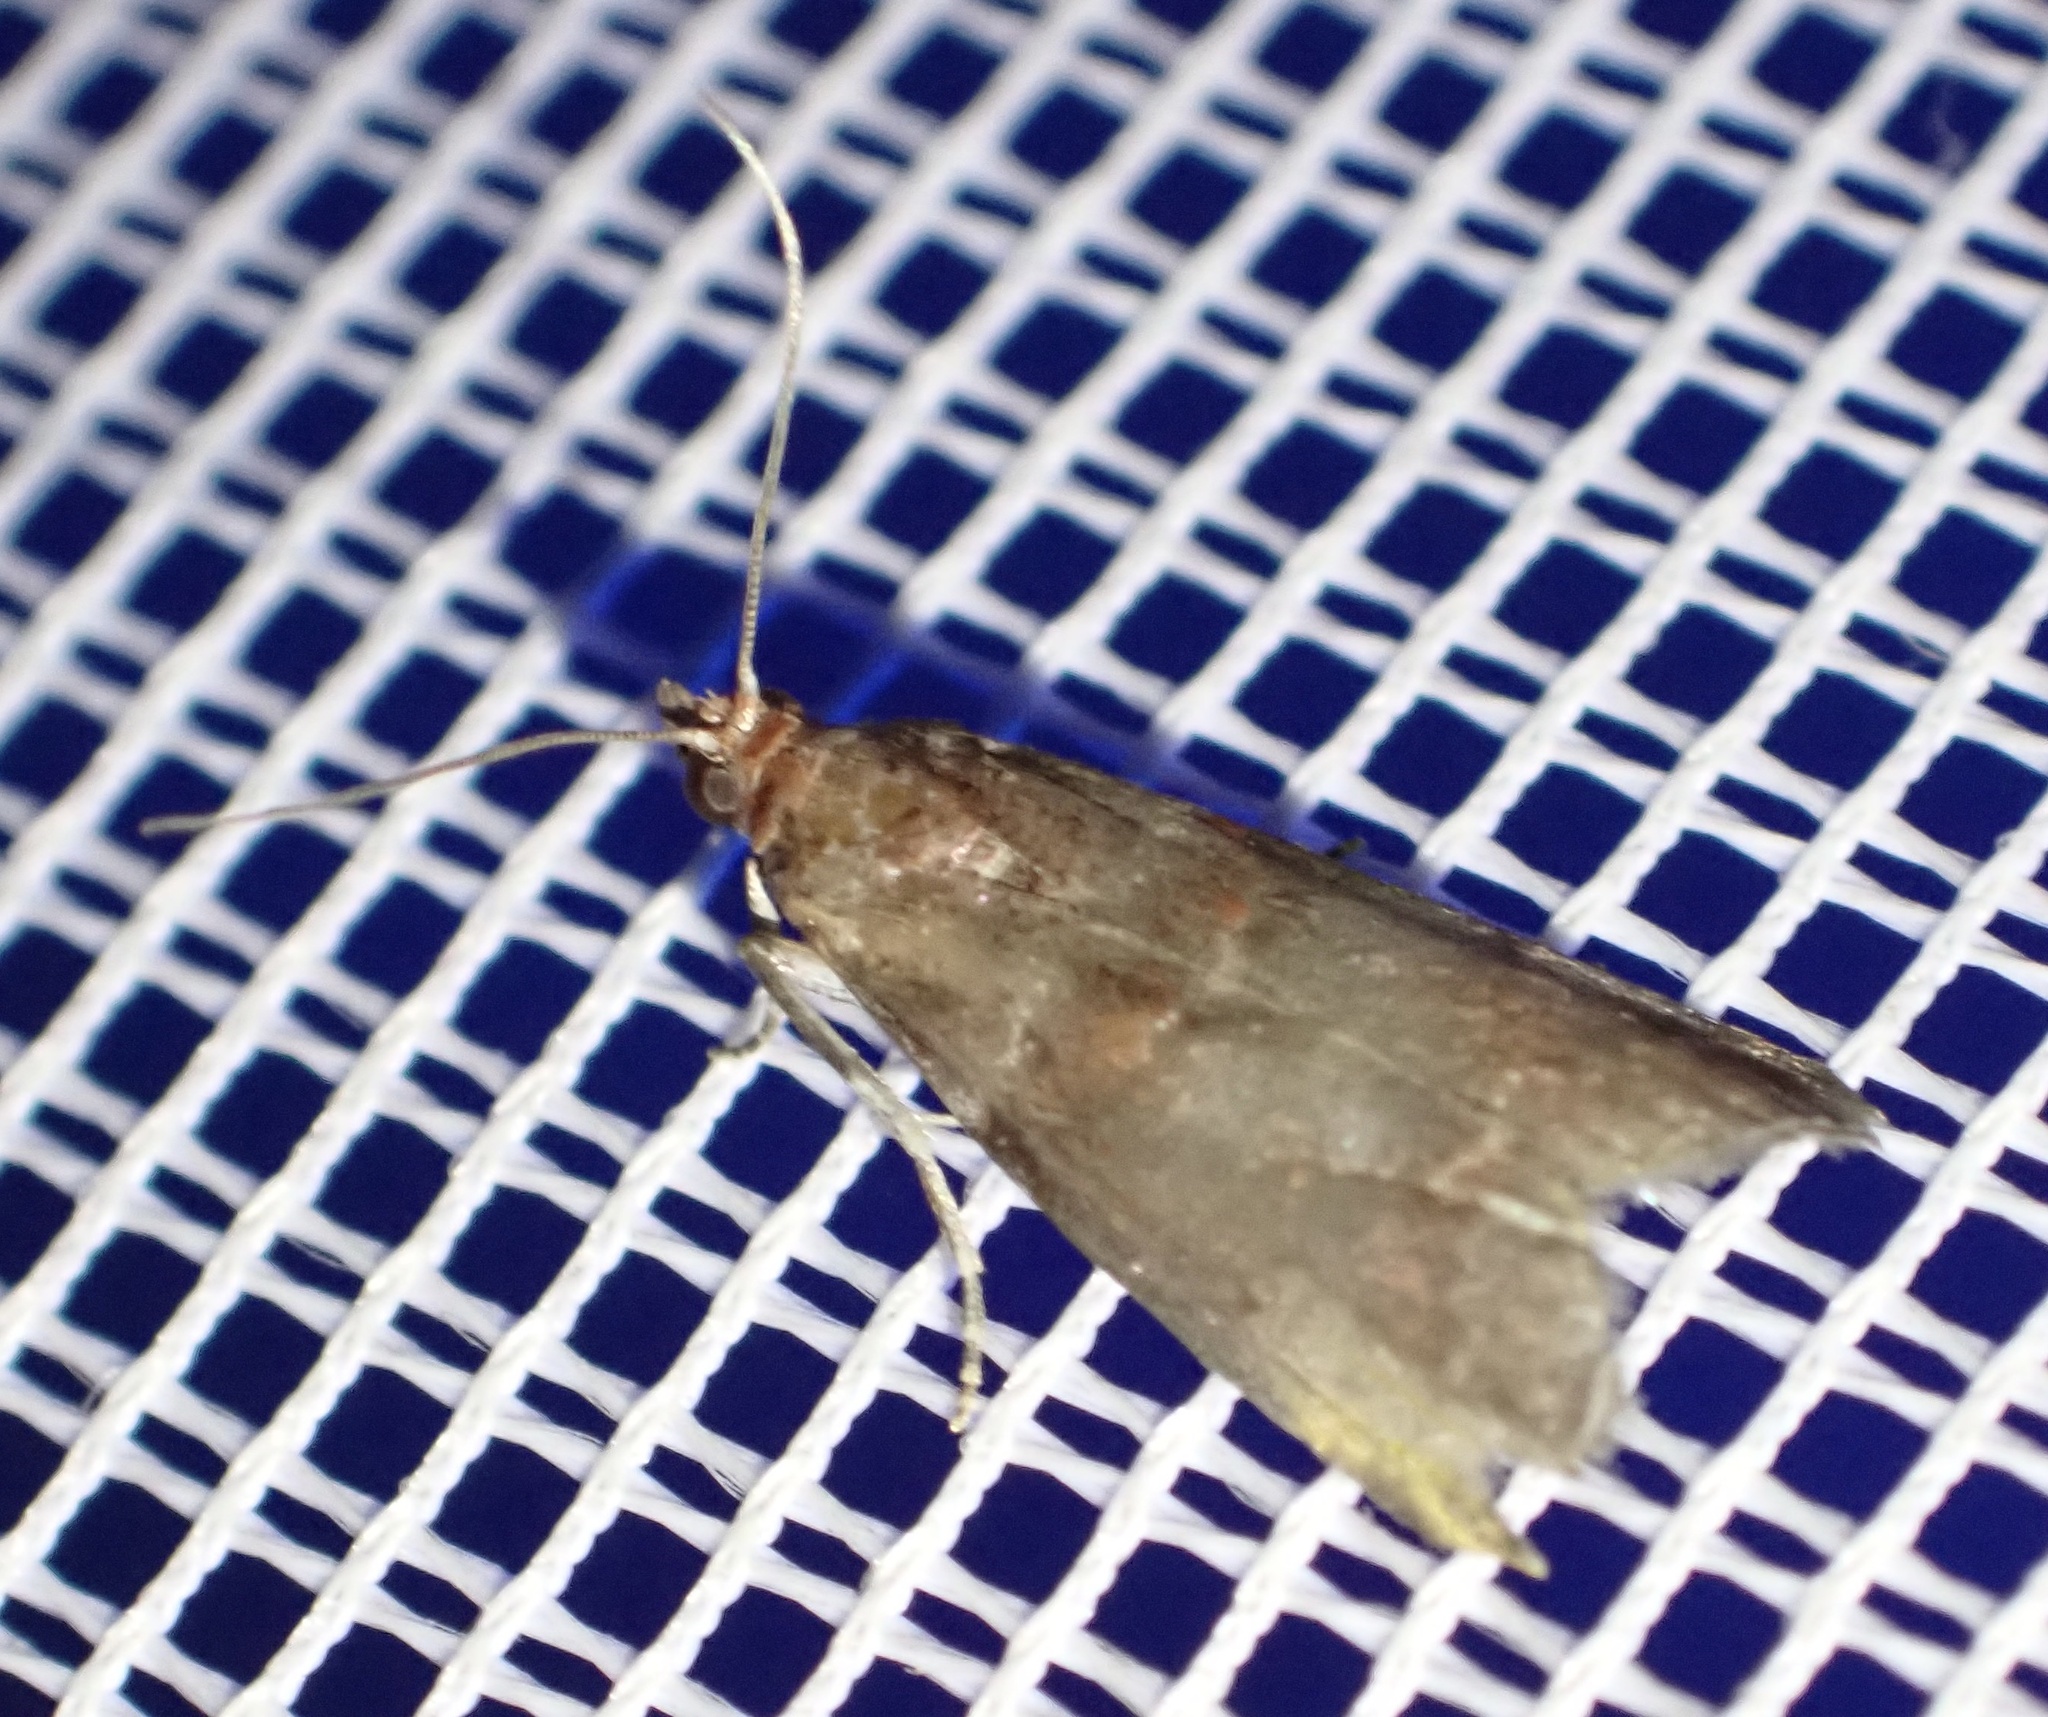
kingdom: Animalia
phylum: Arthropoda
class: Insecta
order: Lepidoptera
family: Pyralidae
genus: Acrobasis
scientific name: Acrobasis advenella
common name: Grey knot-horn
